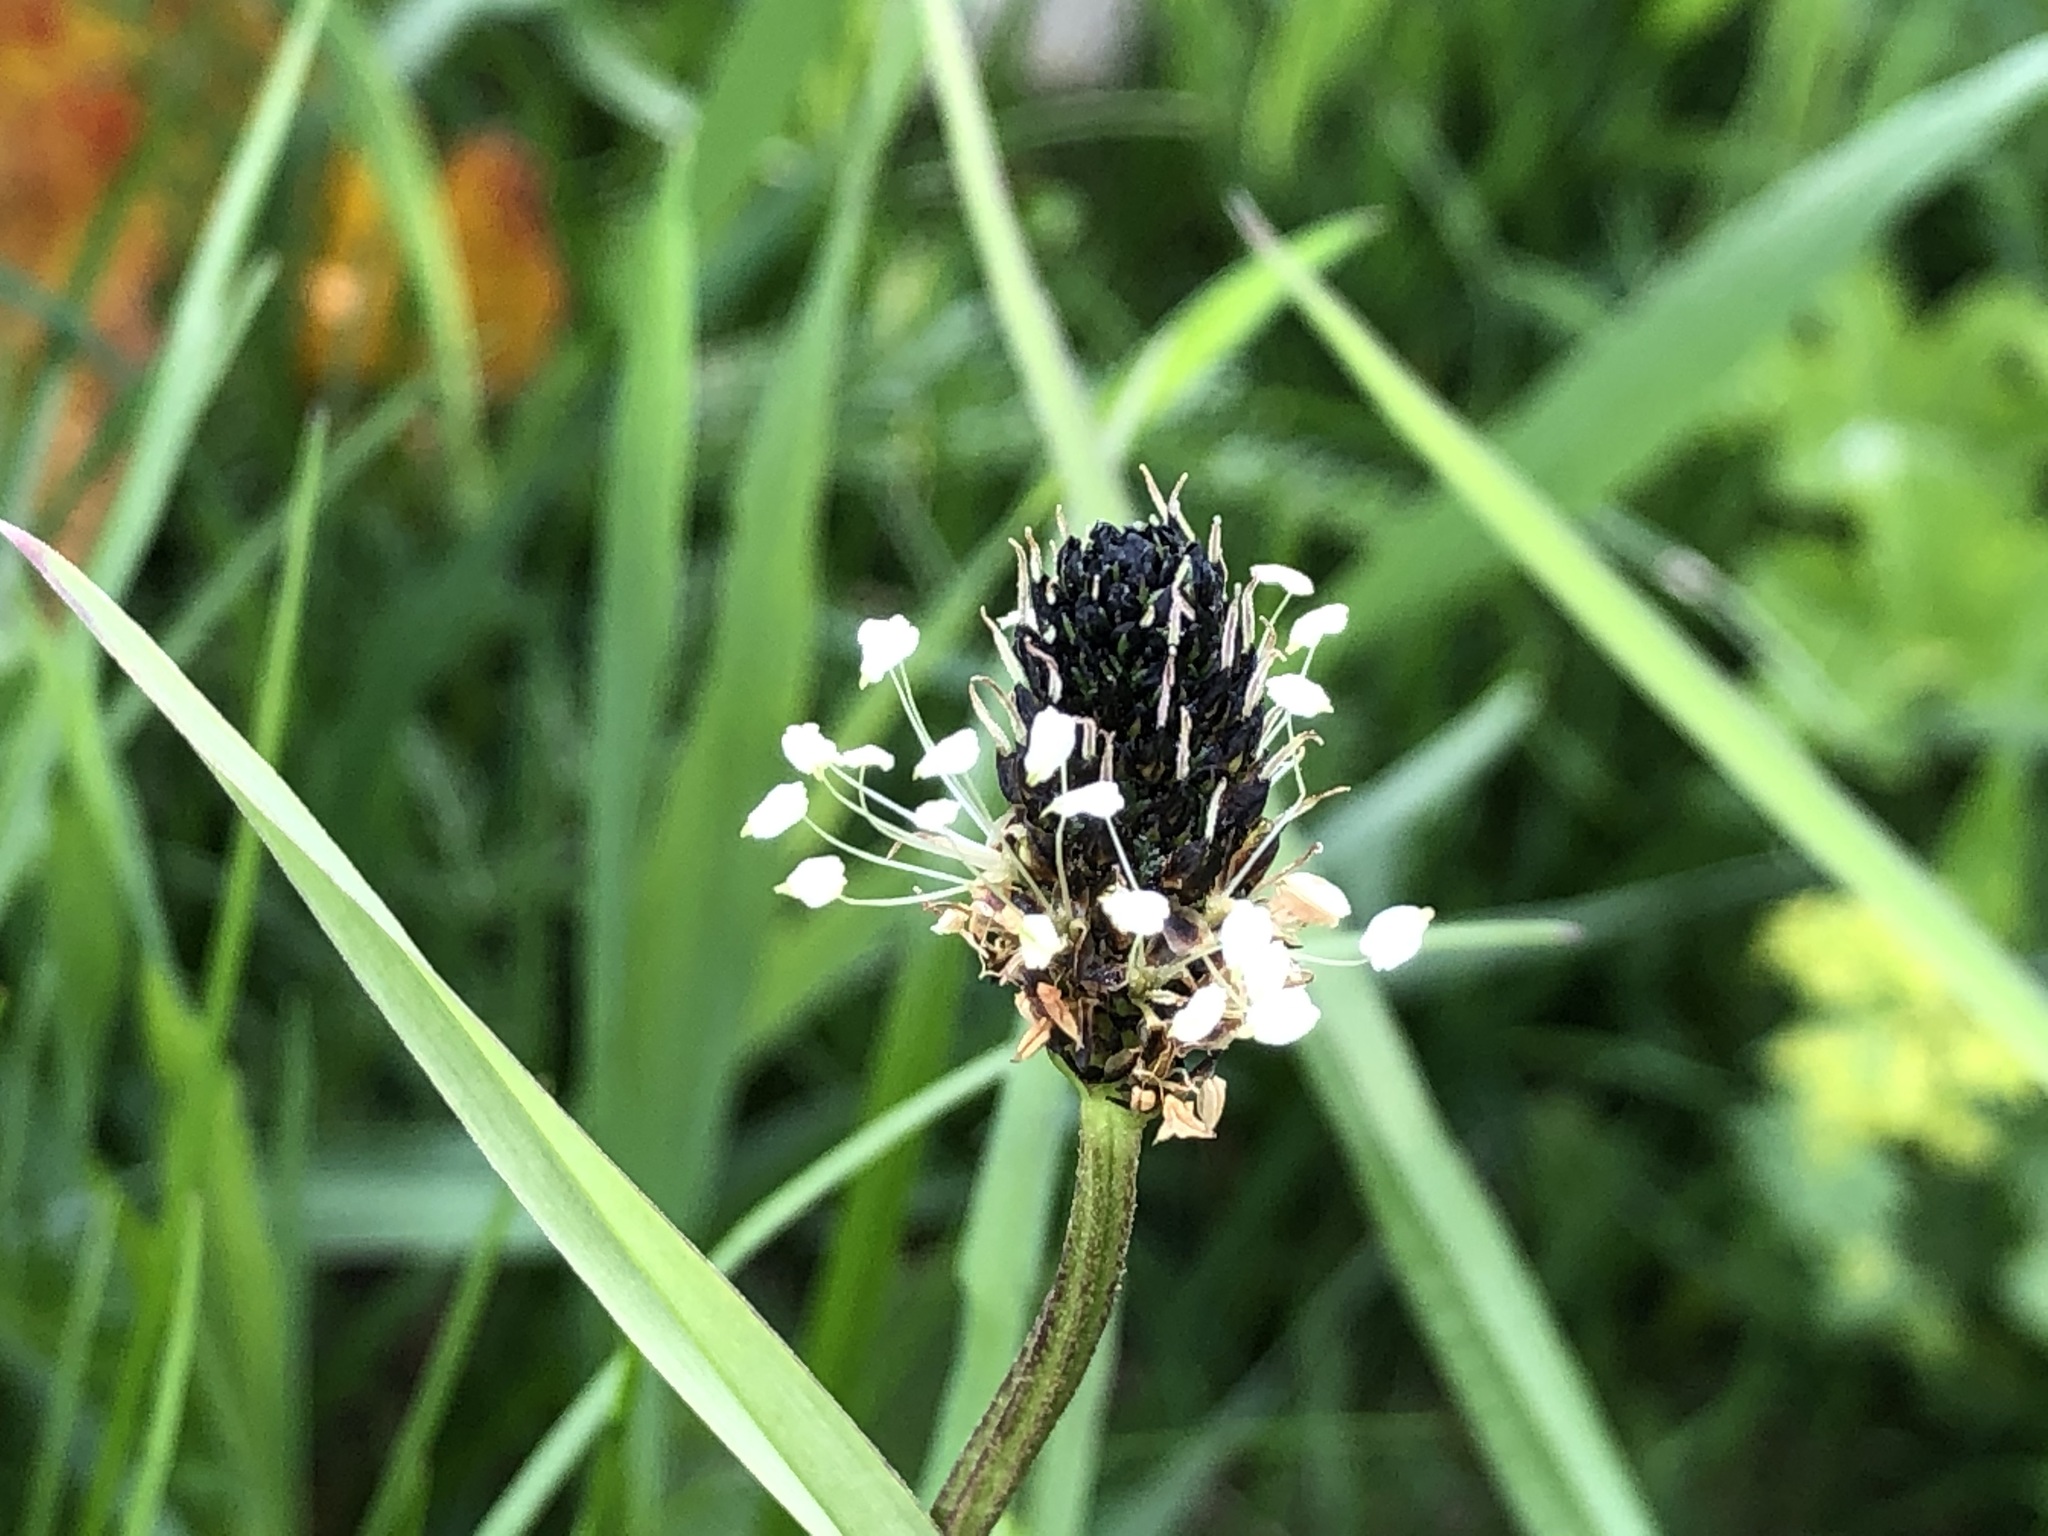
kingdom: Plantae
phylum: Tracheophyta
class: Magnoliopsida
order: Lamiales
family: Plantaginaceae
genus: Plantago
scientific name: Plantago lanceolata
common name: Ribwort plantain
